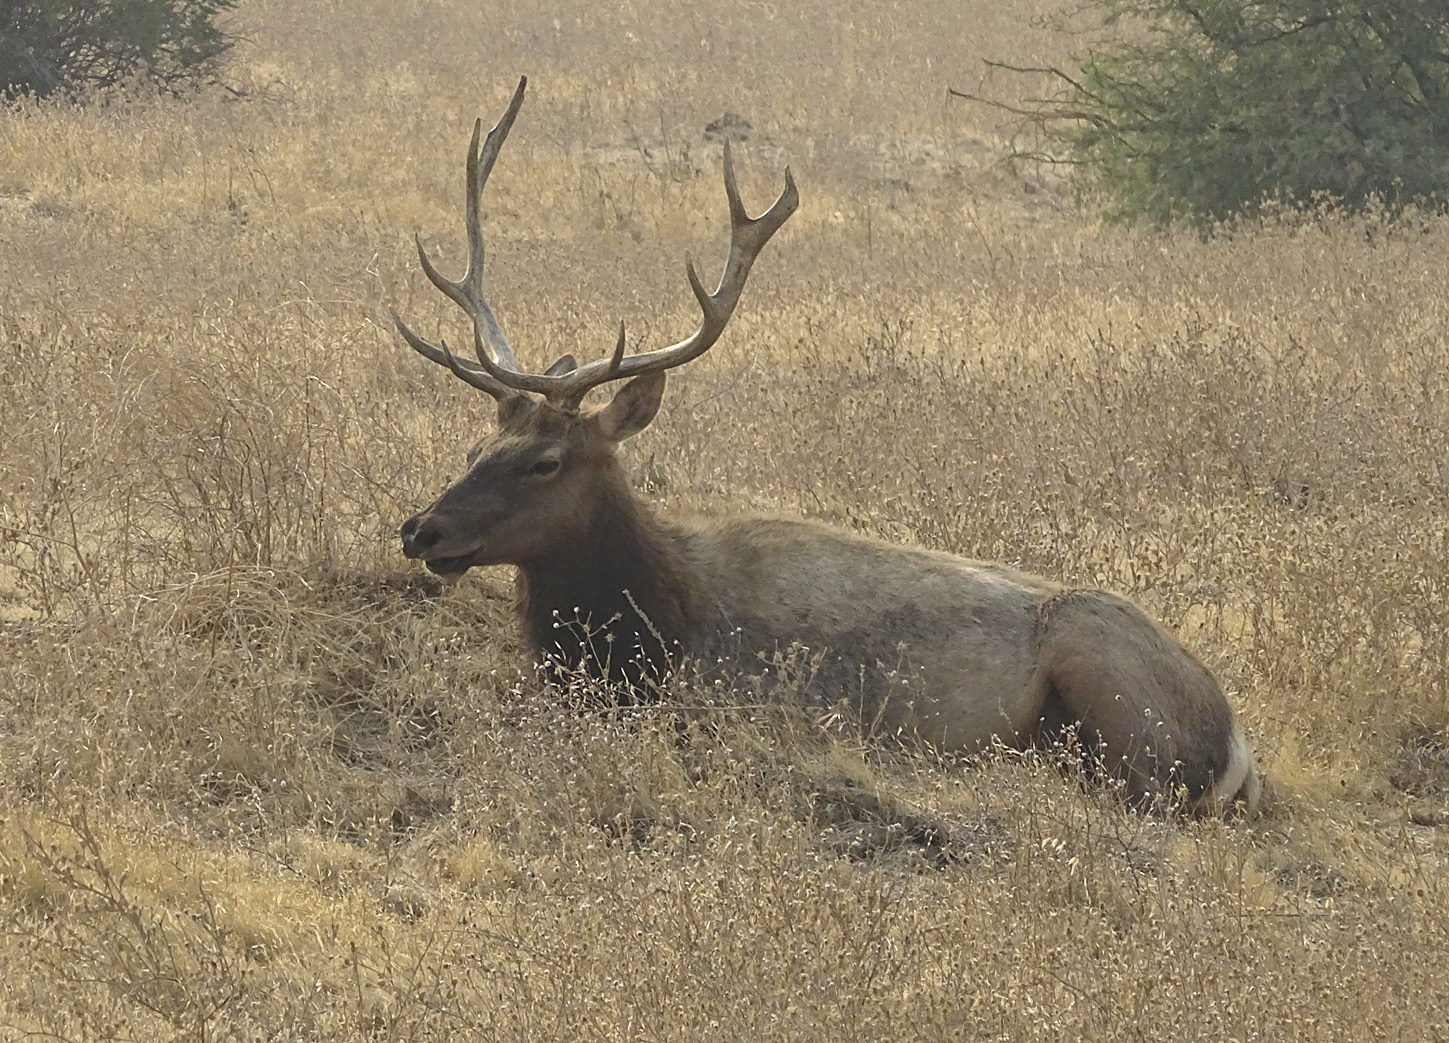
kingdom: Animalia
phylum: Chordata
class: Mammalia
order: Artiodactyla
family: Cervidae
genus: Cervus
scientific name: Cervus elaphus
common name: Red deer
